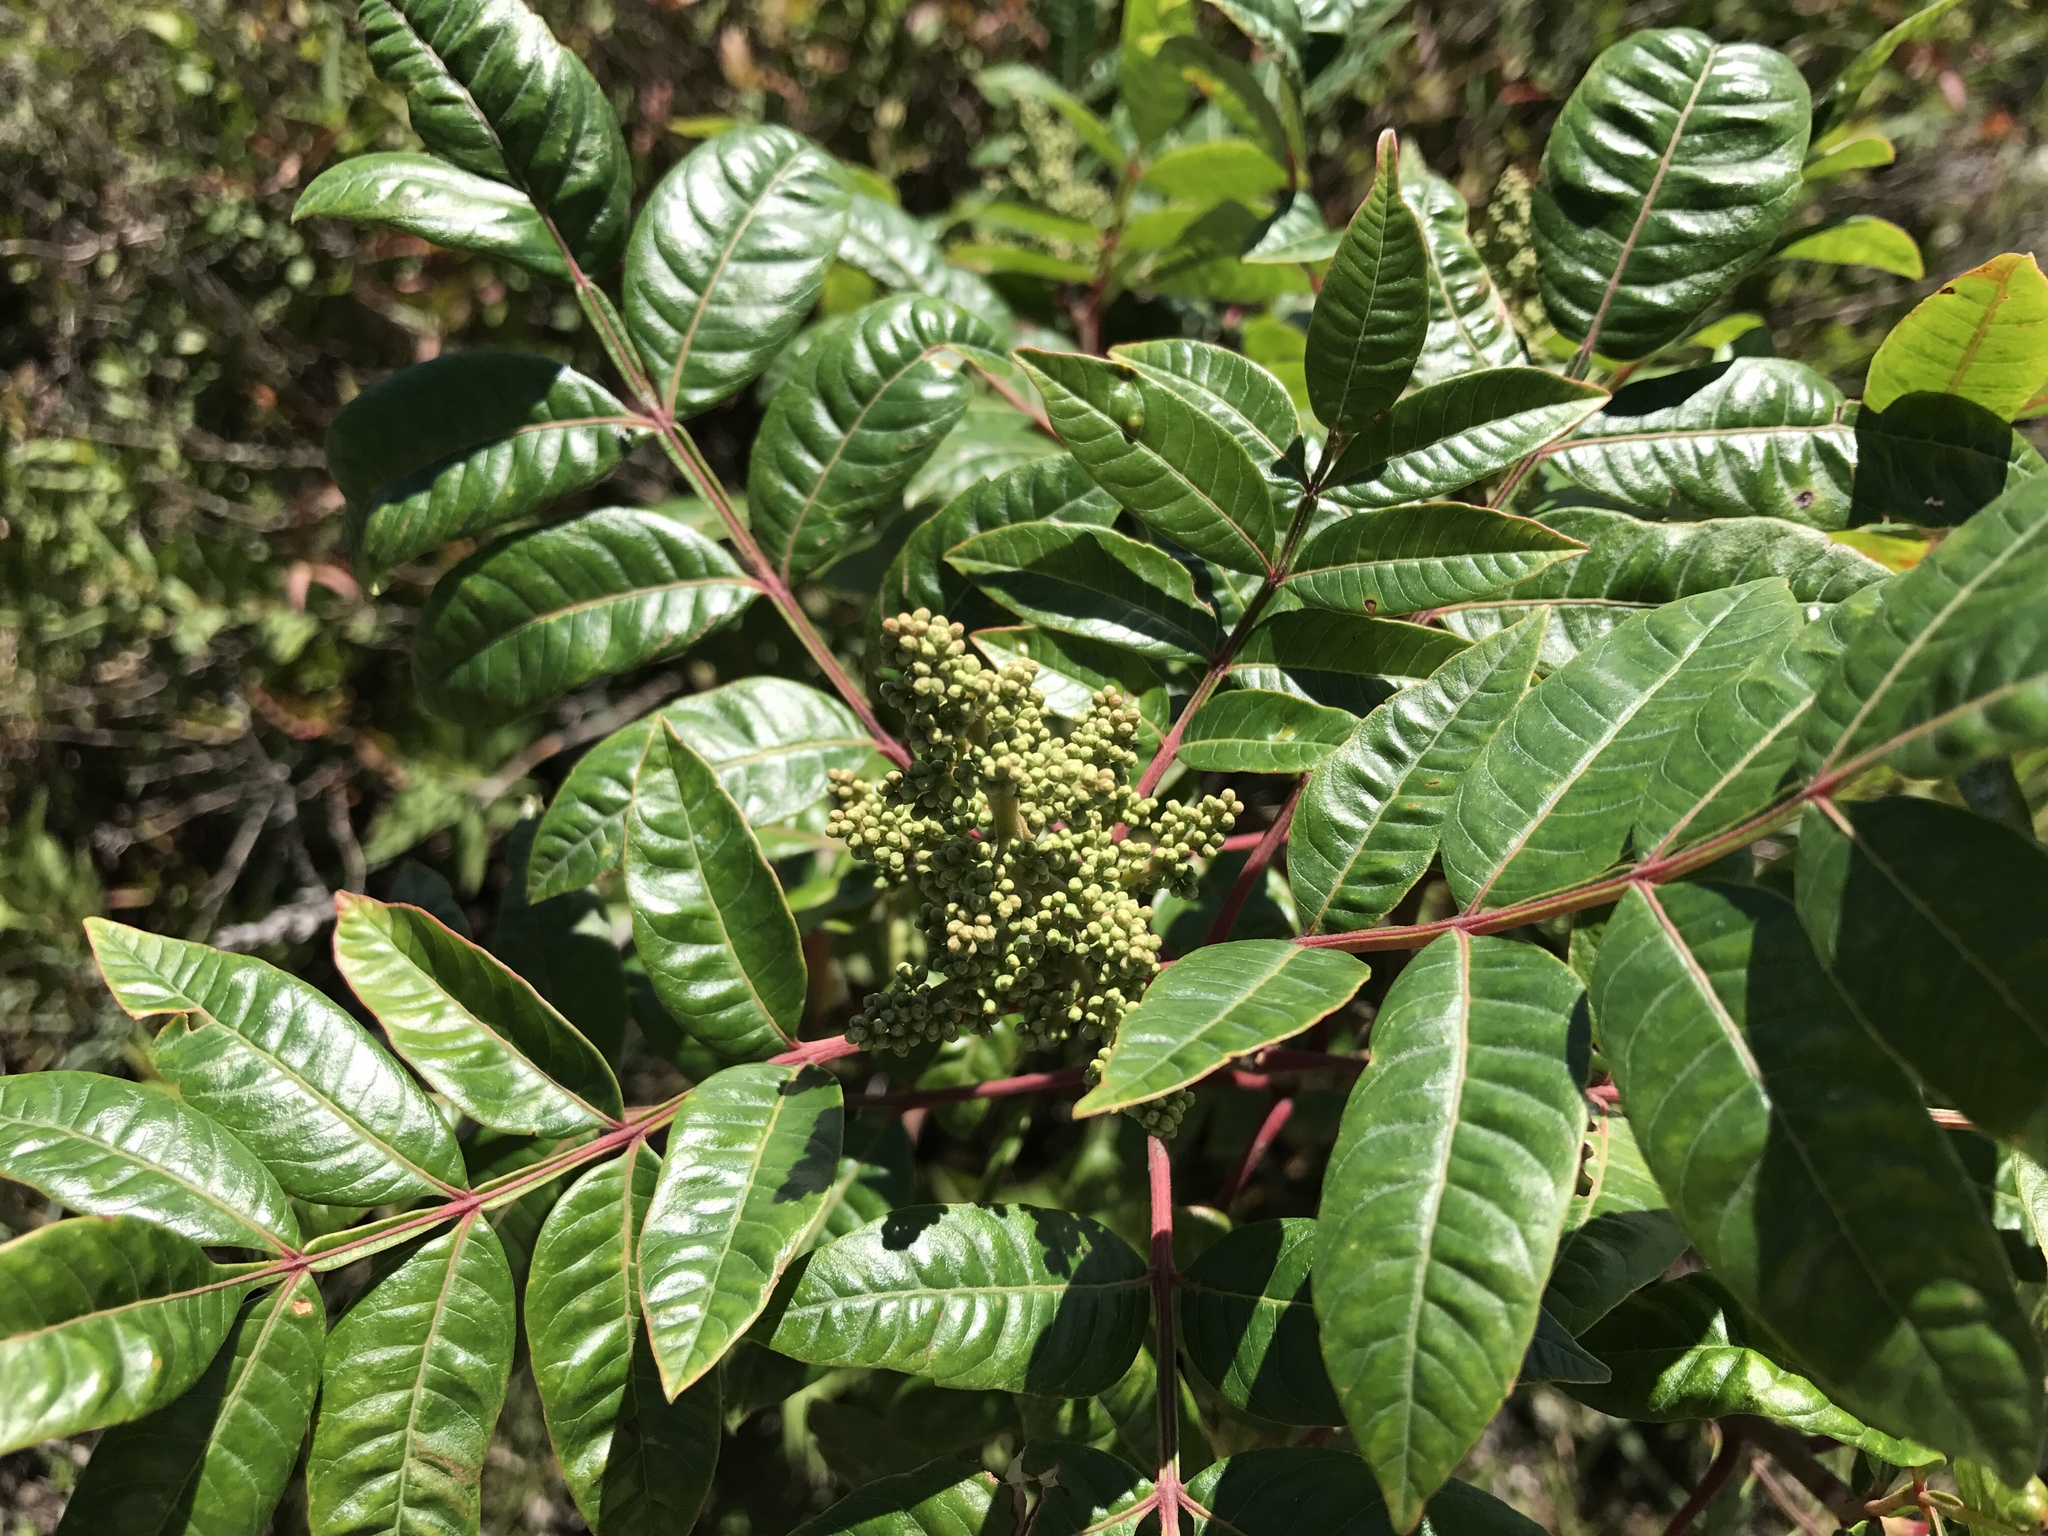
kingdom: Plantae
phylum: Tracheophyta
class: Magnoliopsida
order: Sapindales
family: Anacardiaceae
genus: Rhus
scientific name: Rhus copallina
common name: Shining sumac
